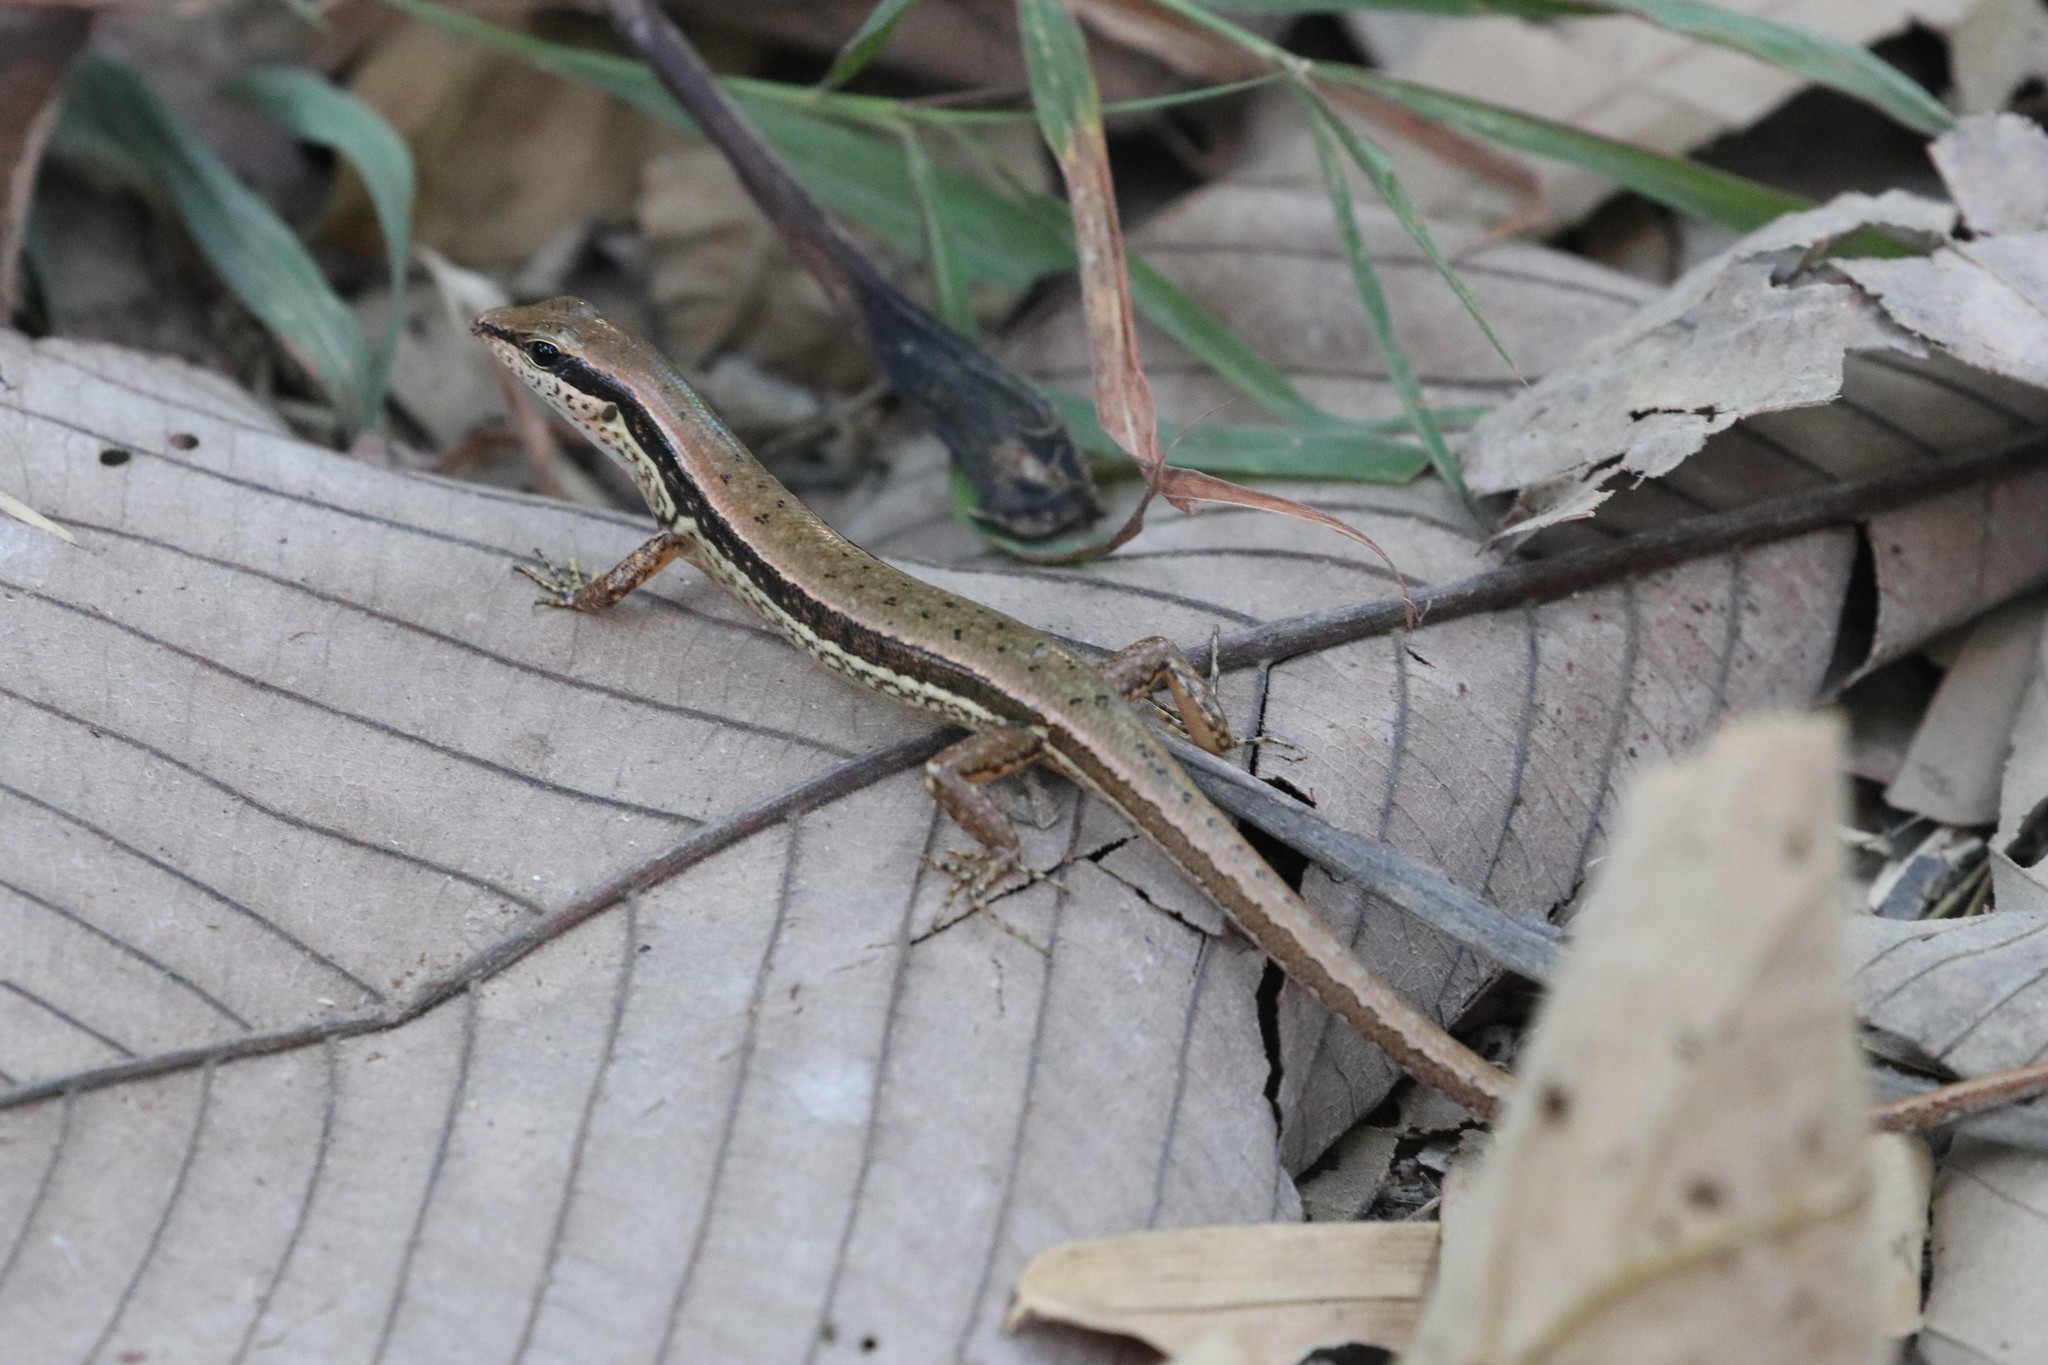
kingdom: Animalia
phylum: Chordata
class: Squamata
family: Scincidae
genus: Sphenomorphus
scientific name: Sphenomorphus maculatus
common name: Maculated forest skink
